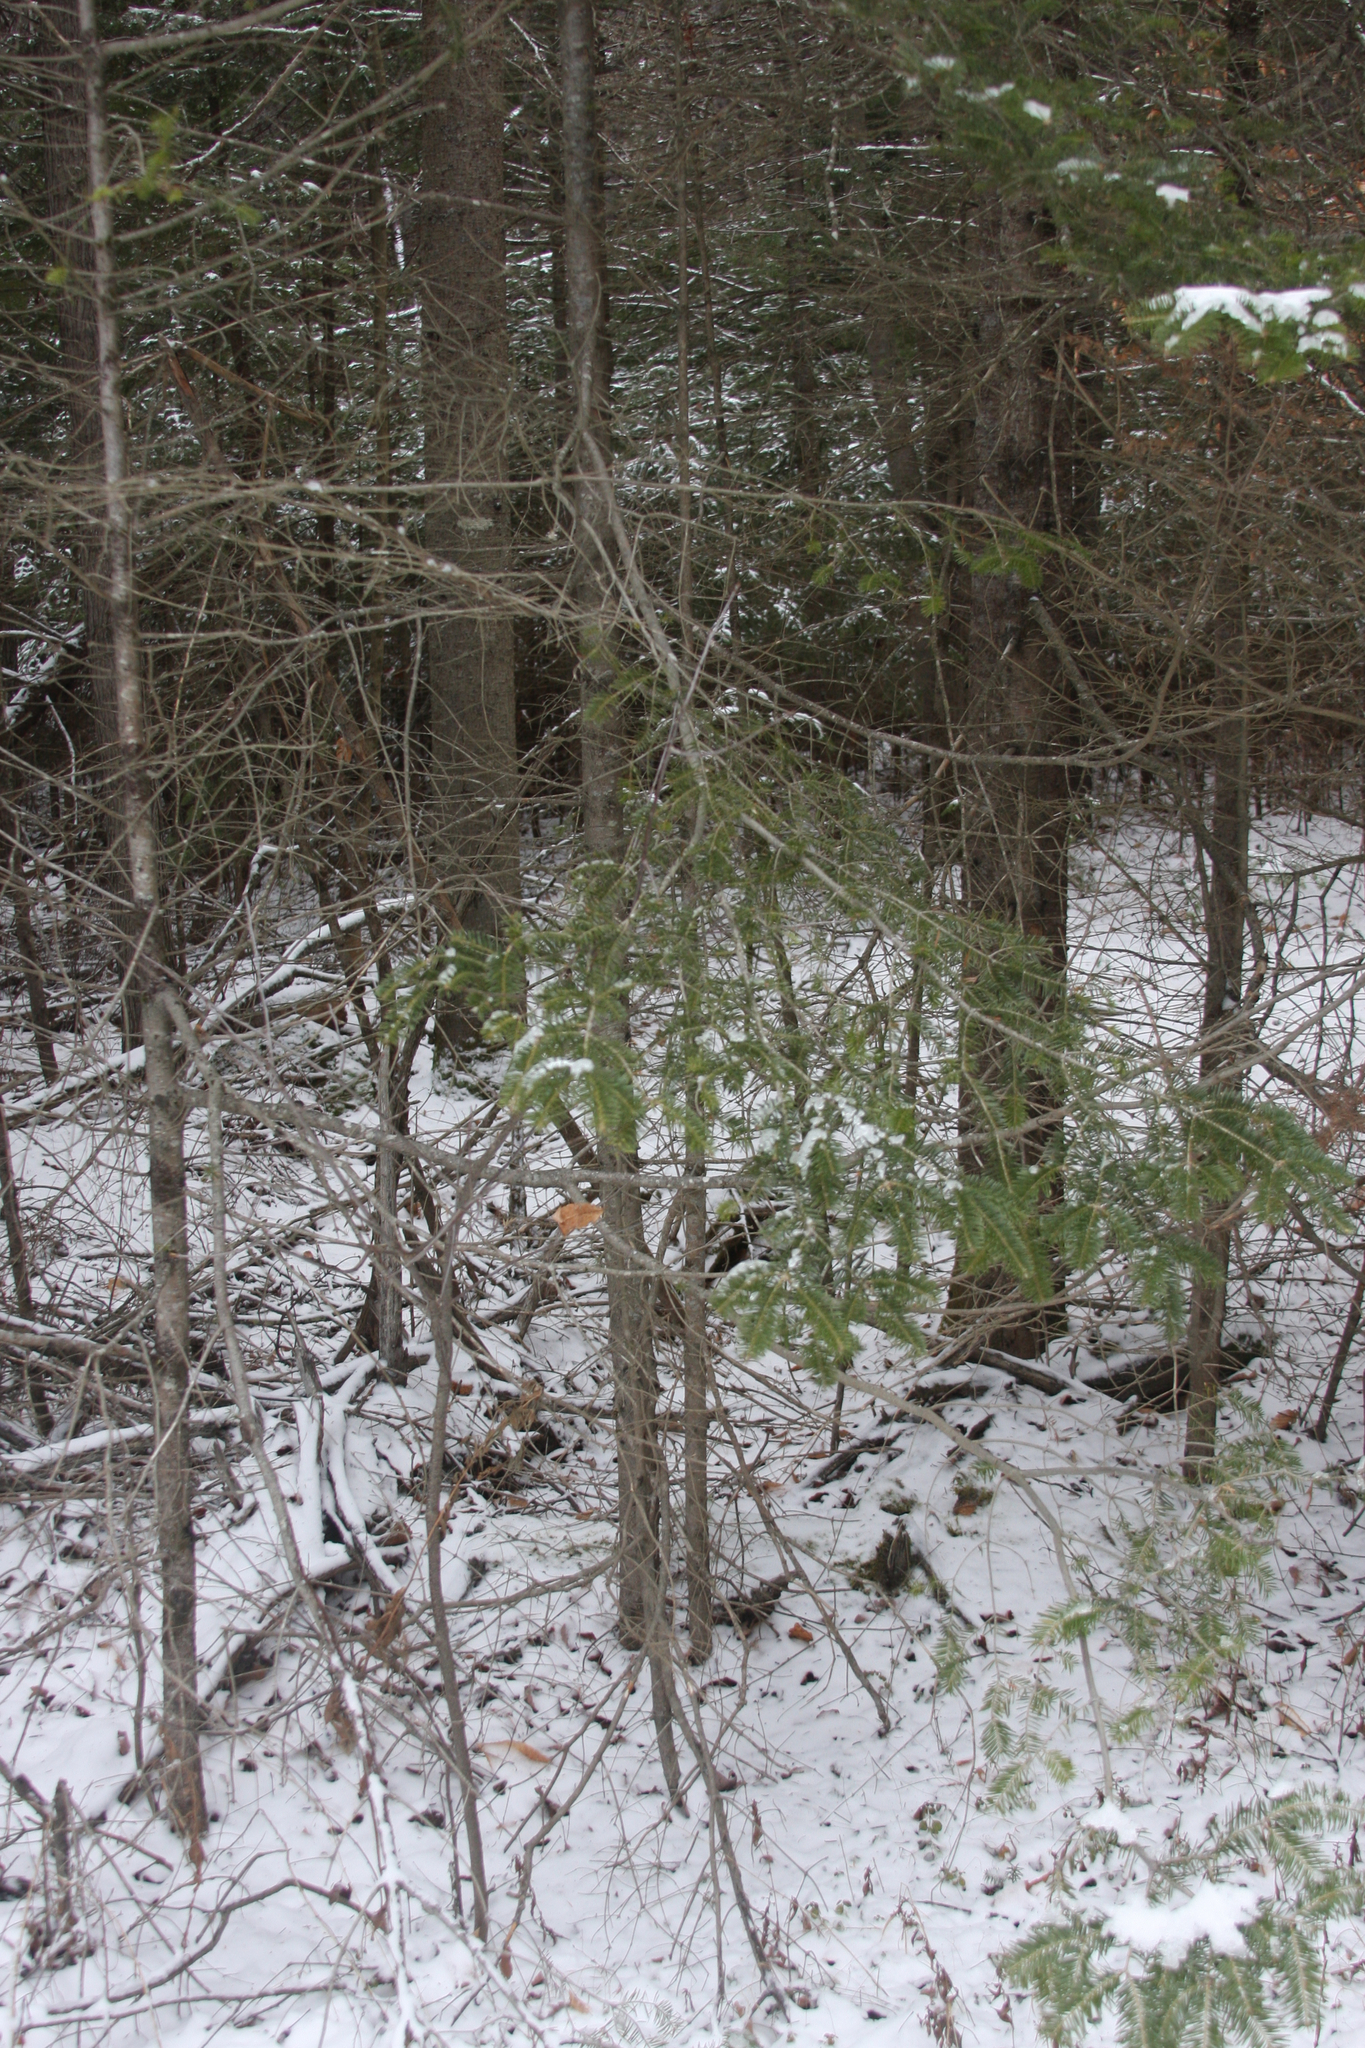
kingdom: Plantae
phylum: Tracheophyta
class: Pinopsida
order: Pinales
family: Pinaceae
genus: Abies
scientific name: Abies balsamea
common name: Balsam fir
